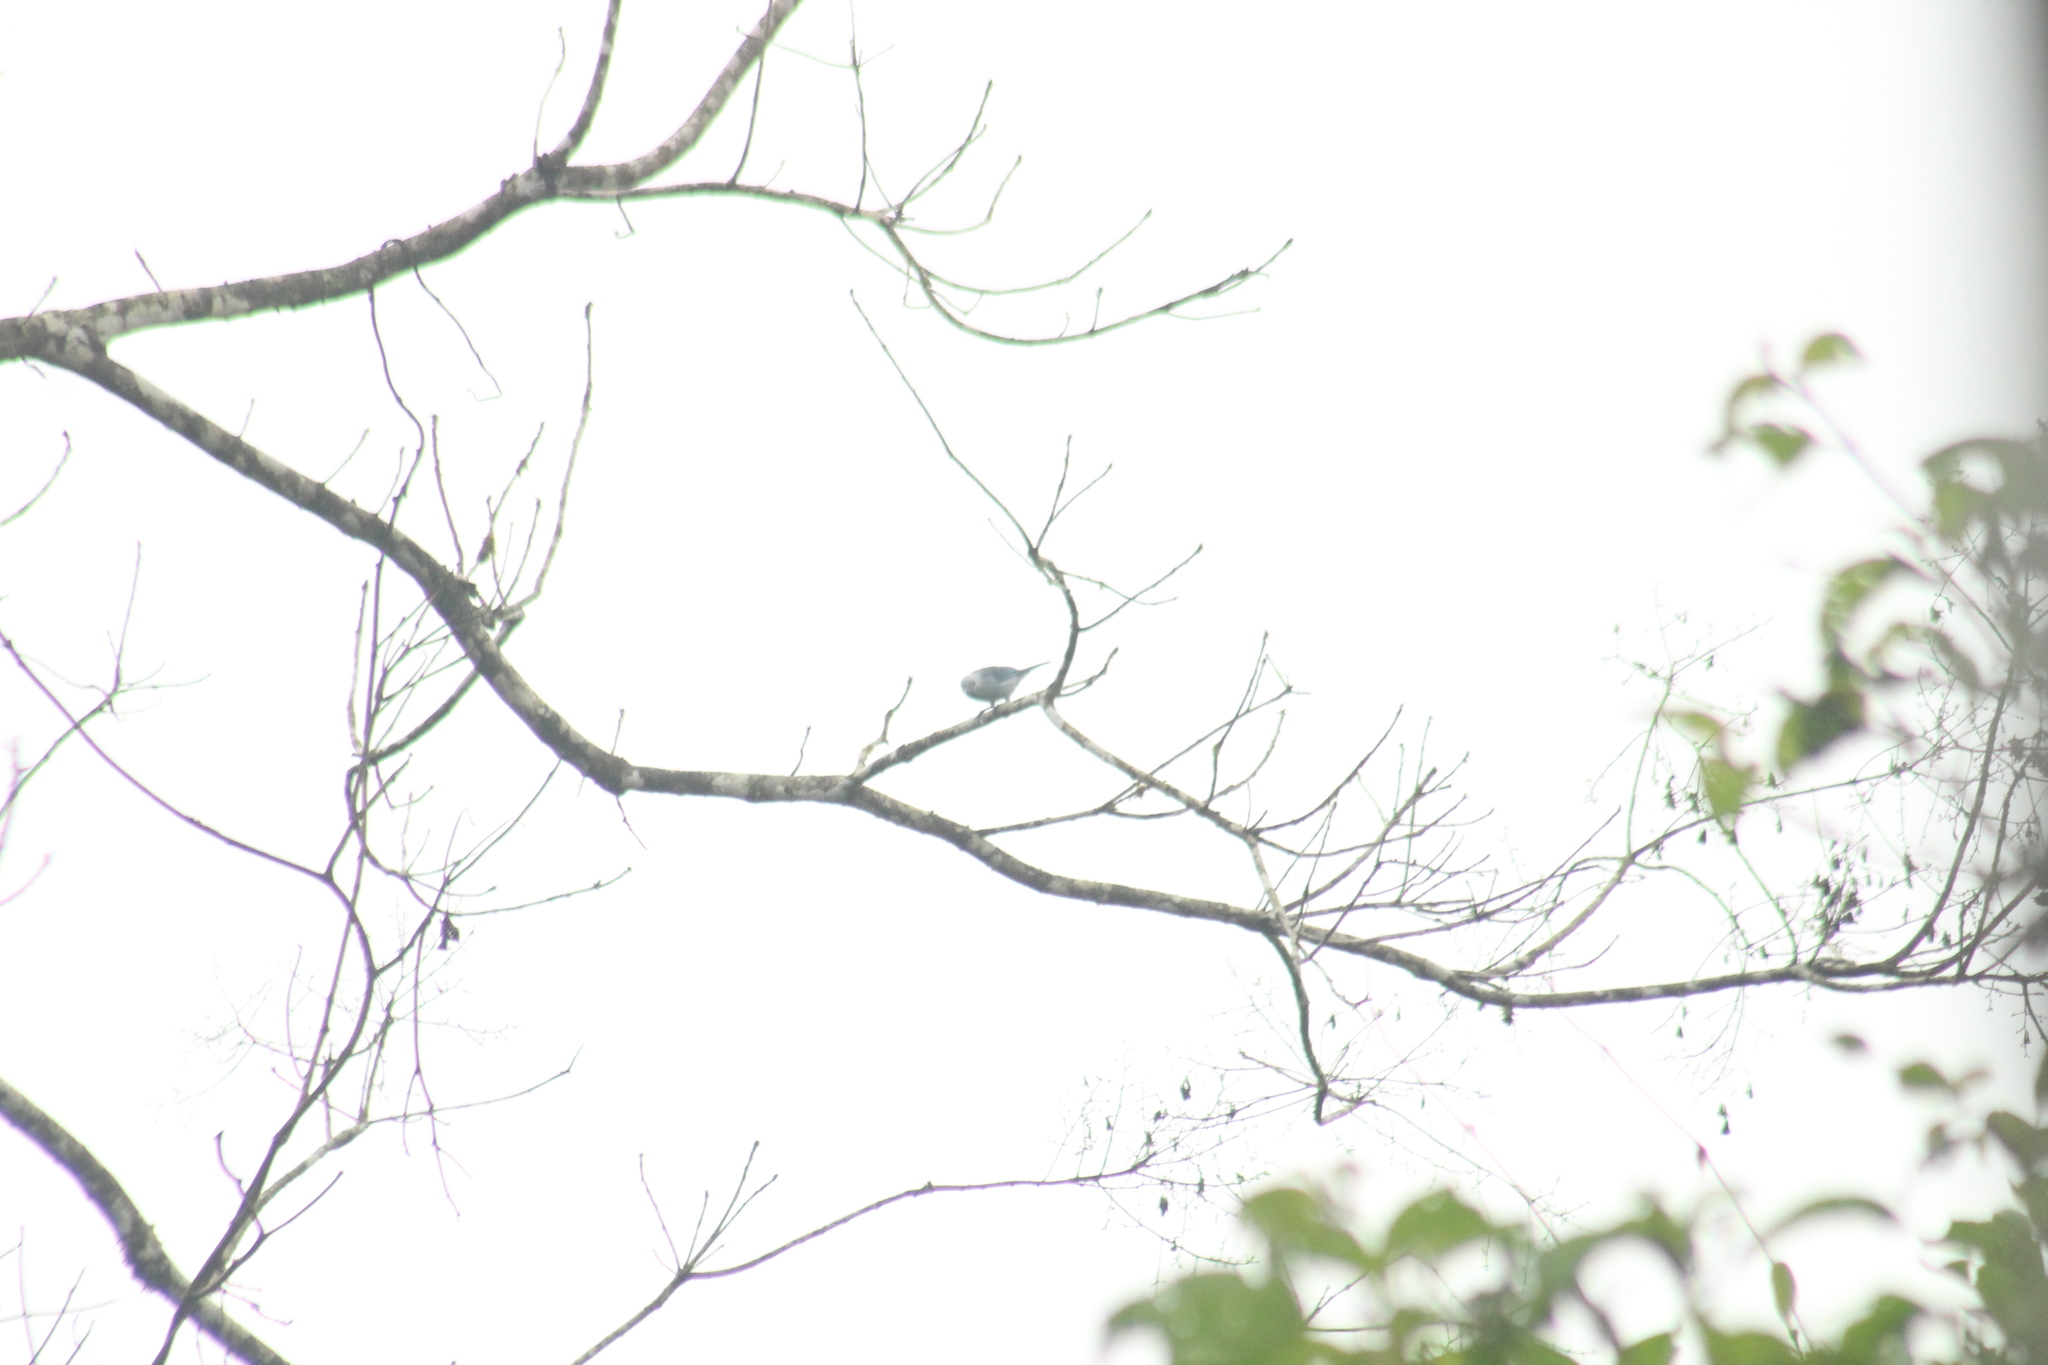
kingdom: Animalia
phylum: Chordata
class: Aves
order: Passeriformes
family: Thraupidae
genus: Thraupis
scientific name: Thraupis episcopus
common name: Blue-grey tanager
